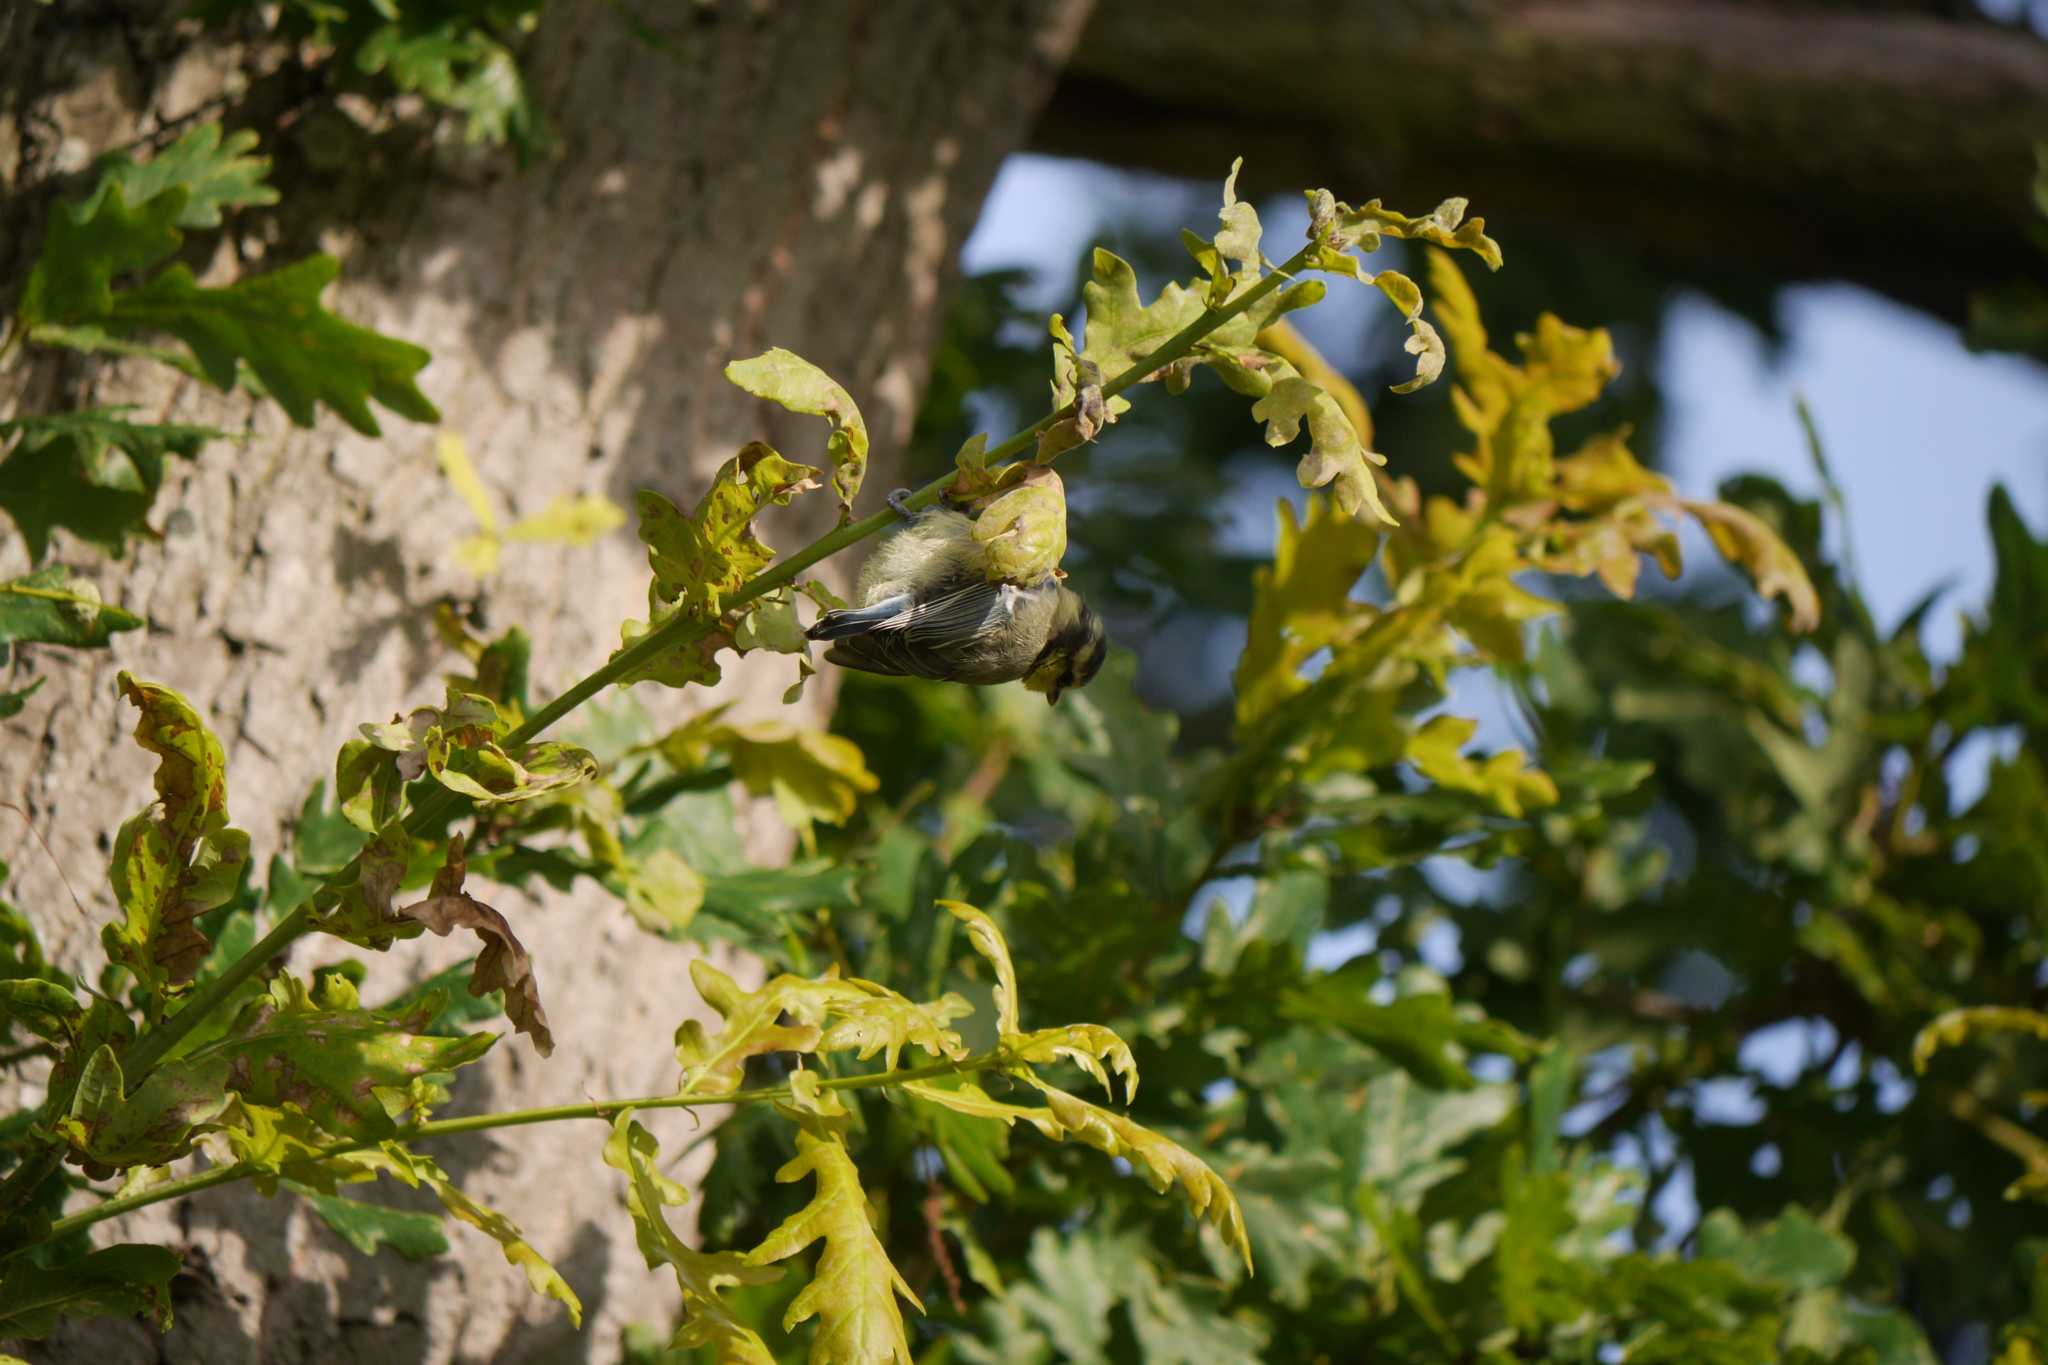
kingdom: Animalia
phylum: Chordata
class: Aves
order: Passeriformes
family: Paridae
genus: Cyanistes
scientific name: Cyanistes caeruleus
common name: Eurasian blue tit
